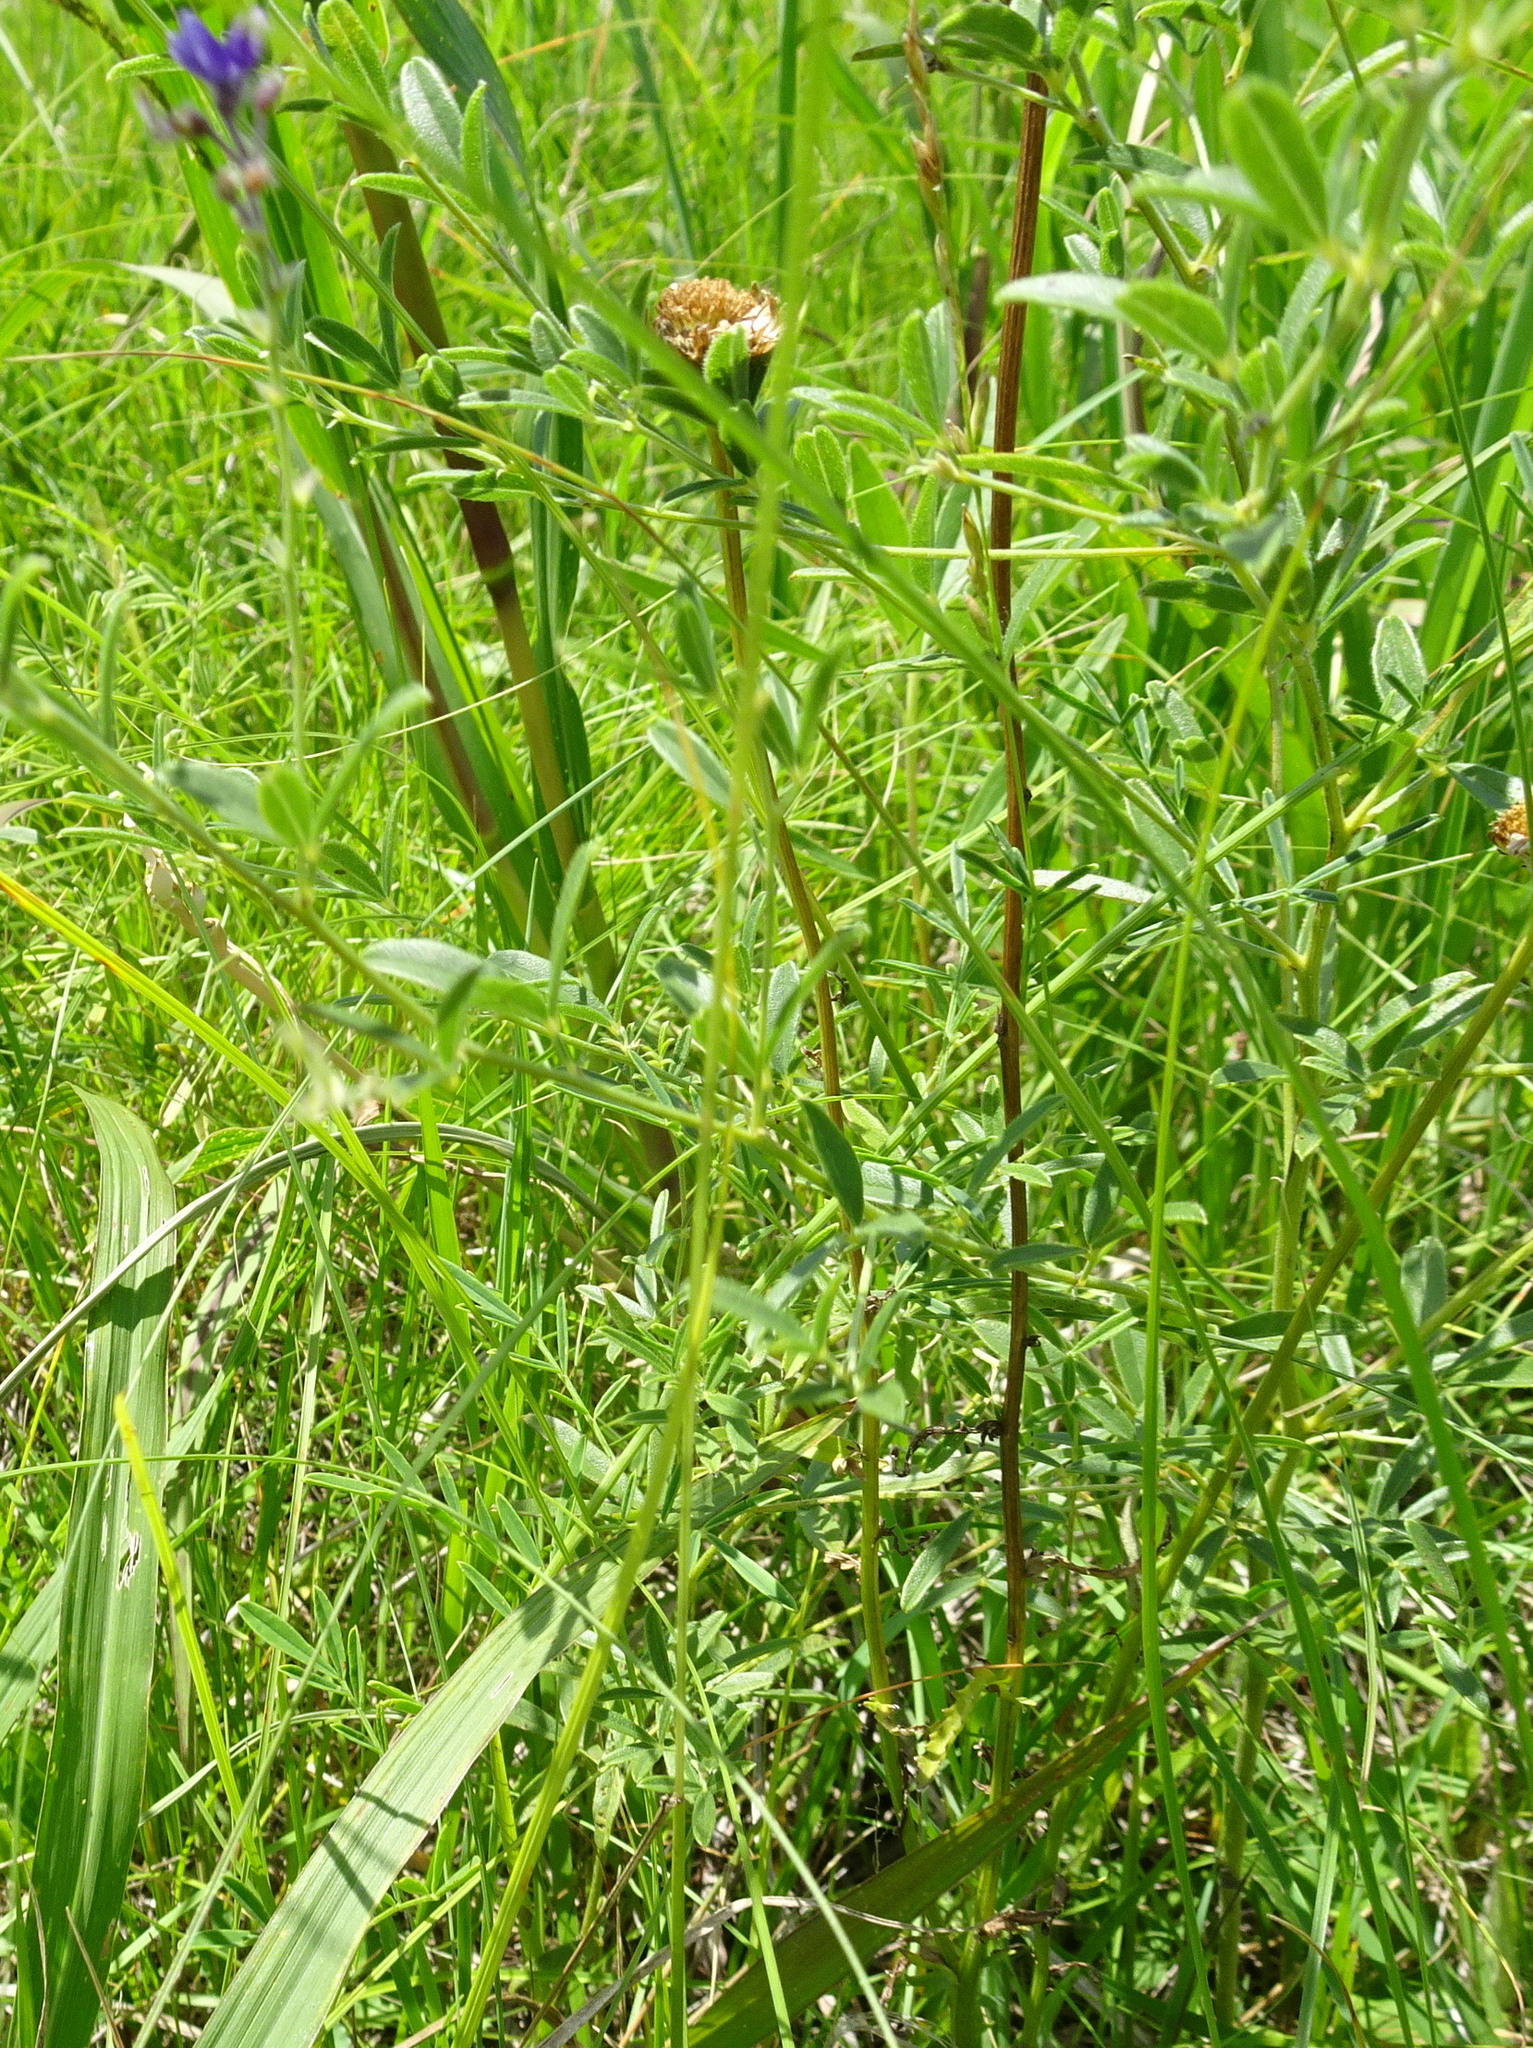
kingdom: Plantae
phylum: Tracheophyta
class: Magnoliopsida
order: Fabales
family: Fabaceae
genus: Pediomelum
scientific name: Pediomelum tenuiflorum
